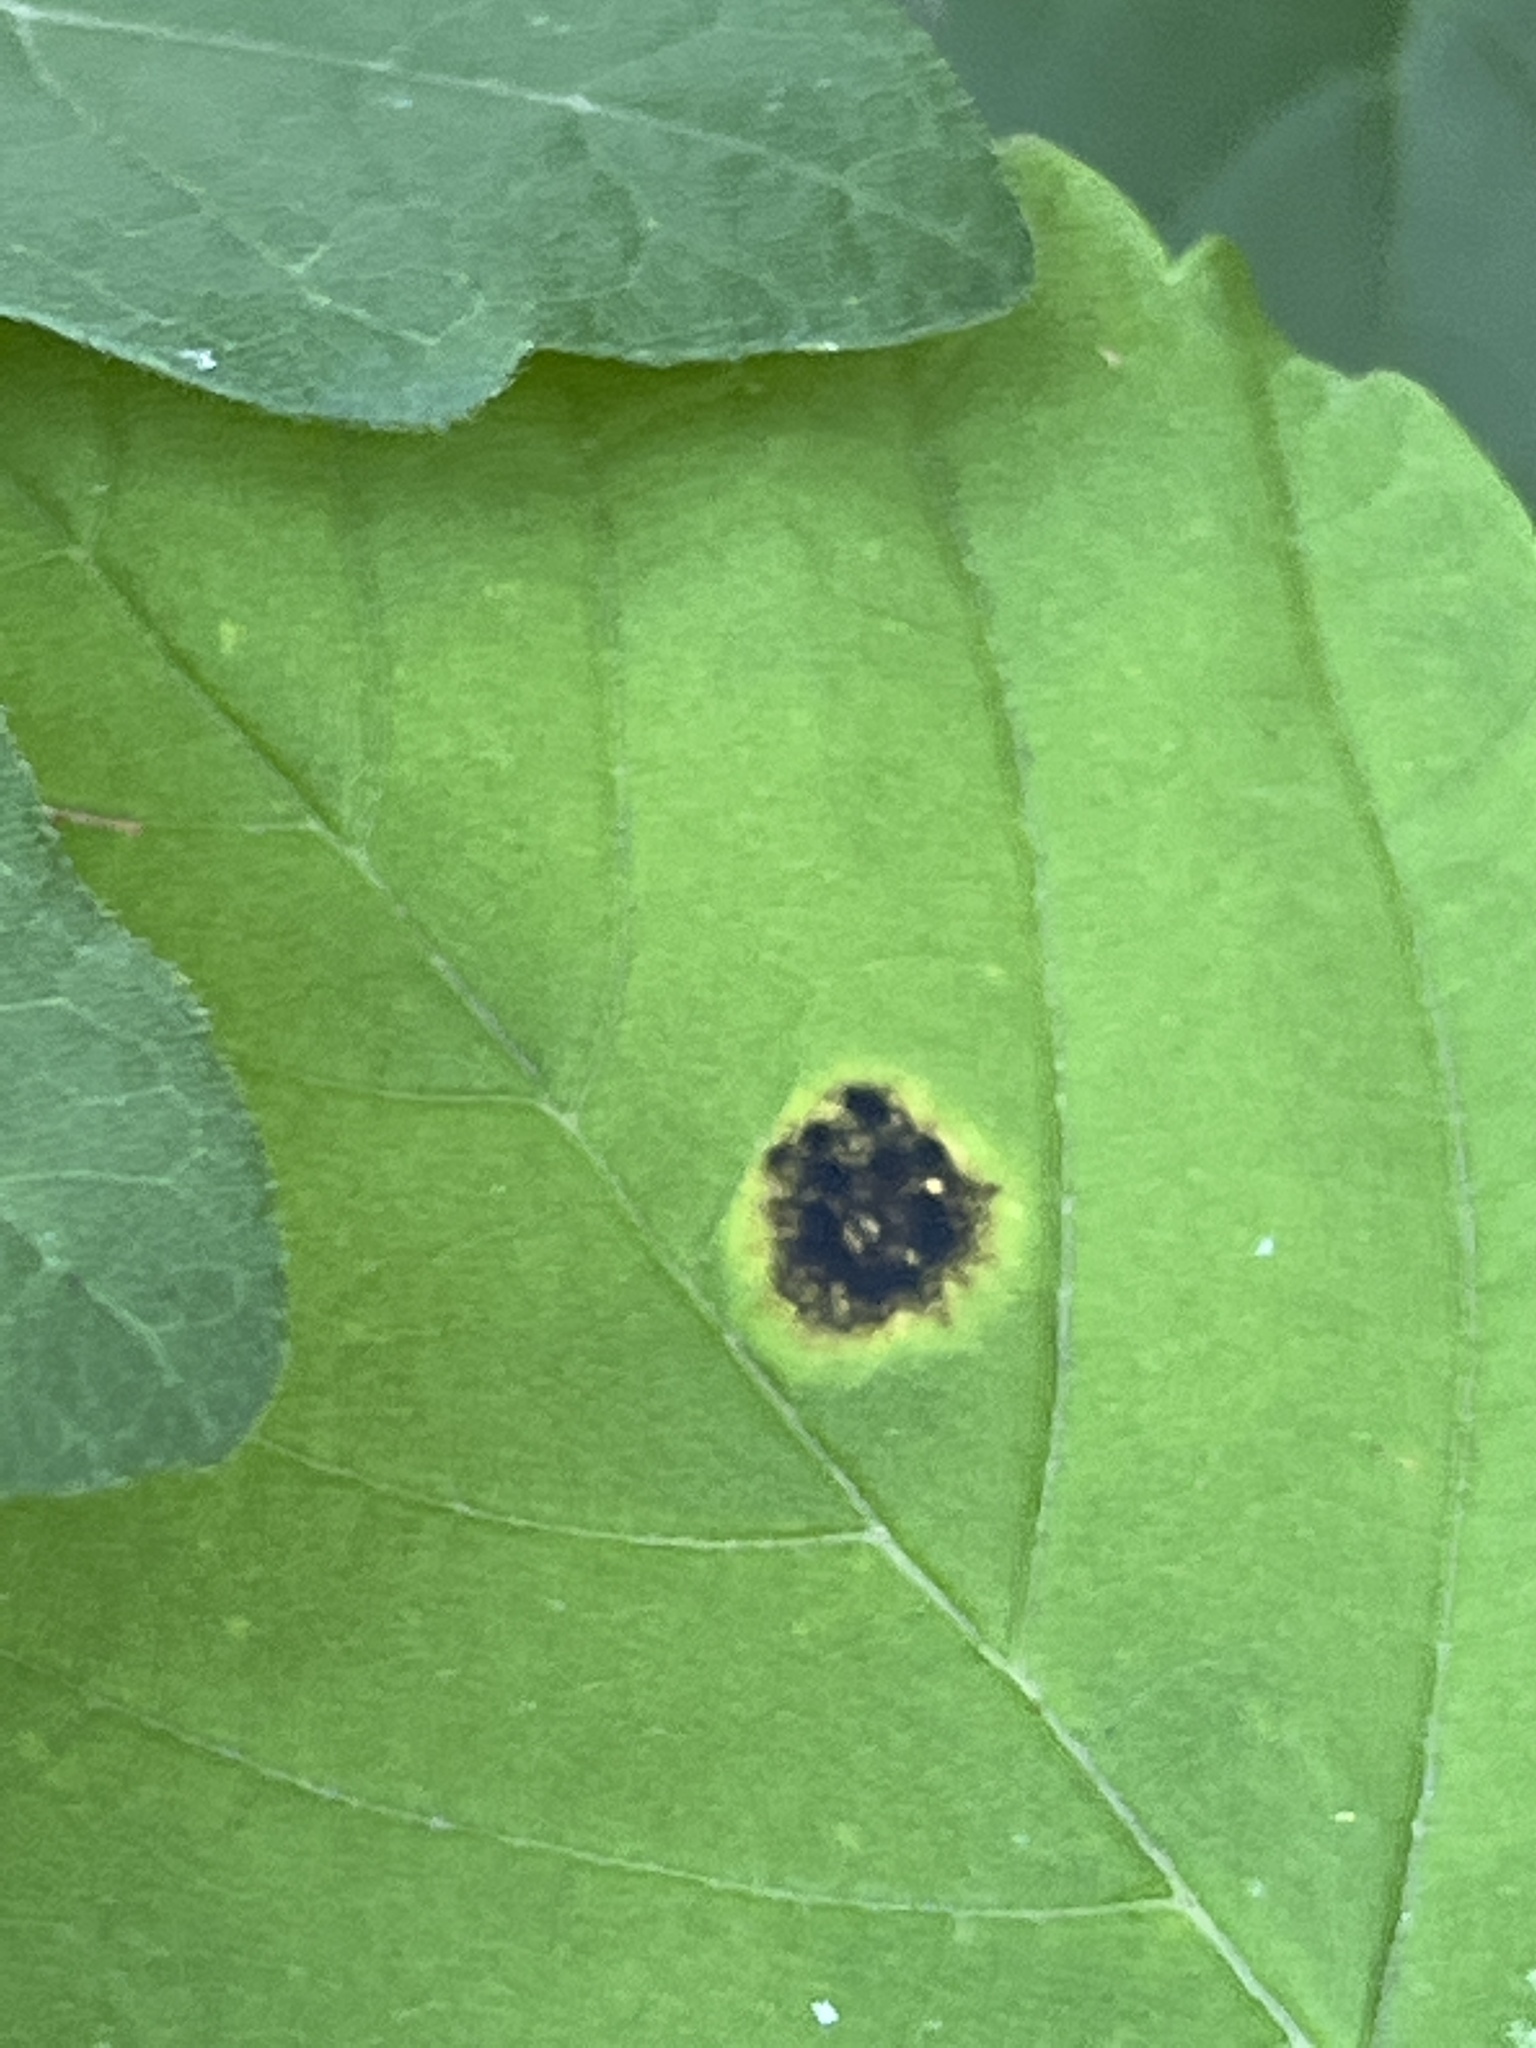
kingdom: Fungi
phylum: Ascomycota
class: Leotiomycetes
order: Rhytismatales
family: Rhytismataceae
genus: Rhytisma
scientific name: Rhytisma acerinum
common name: European tar spot
